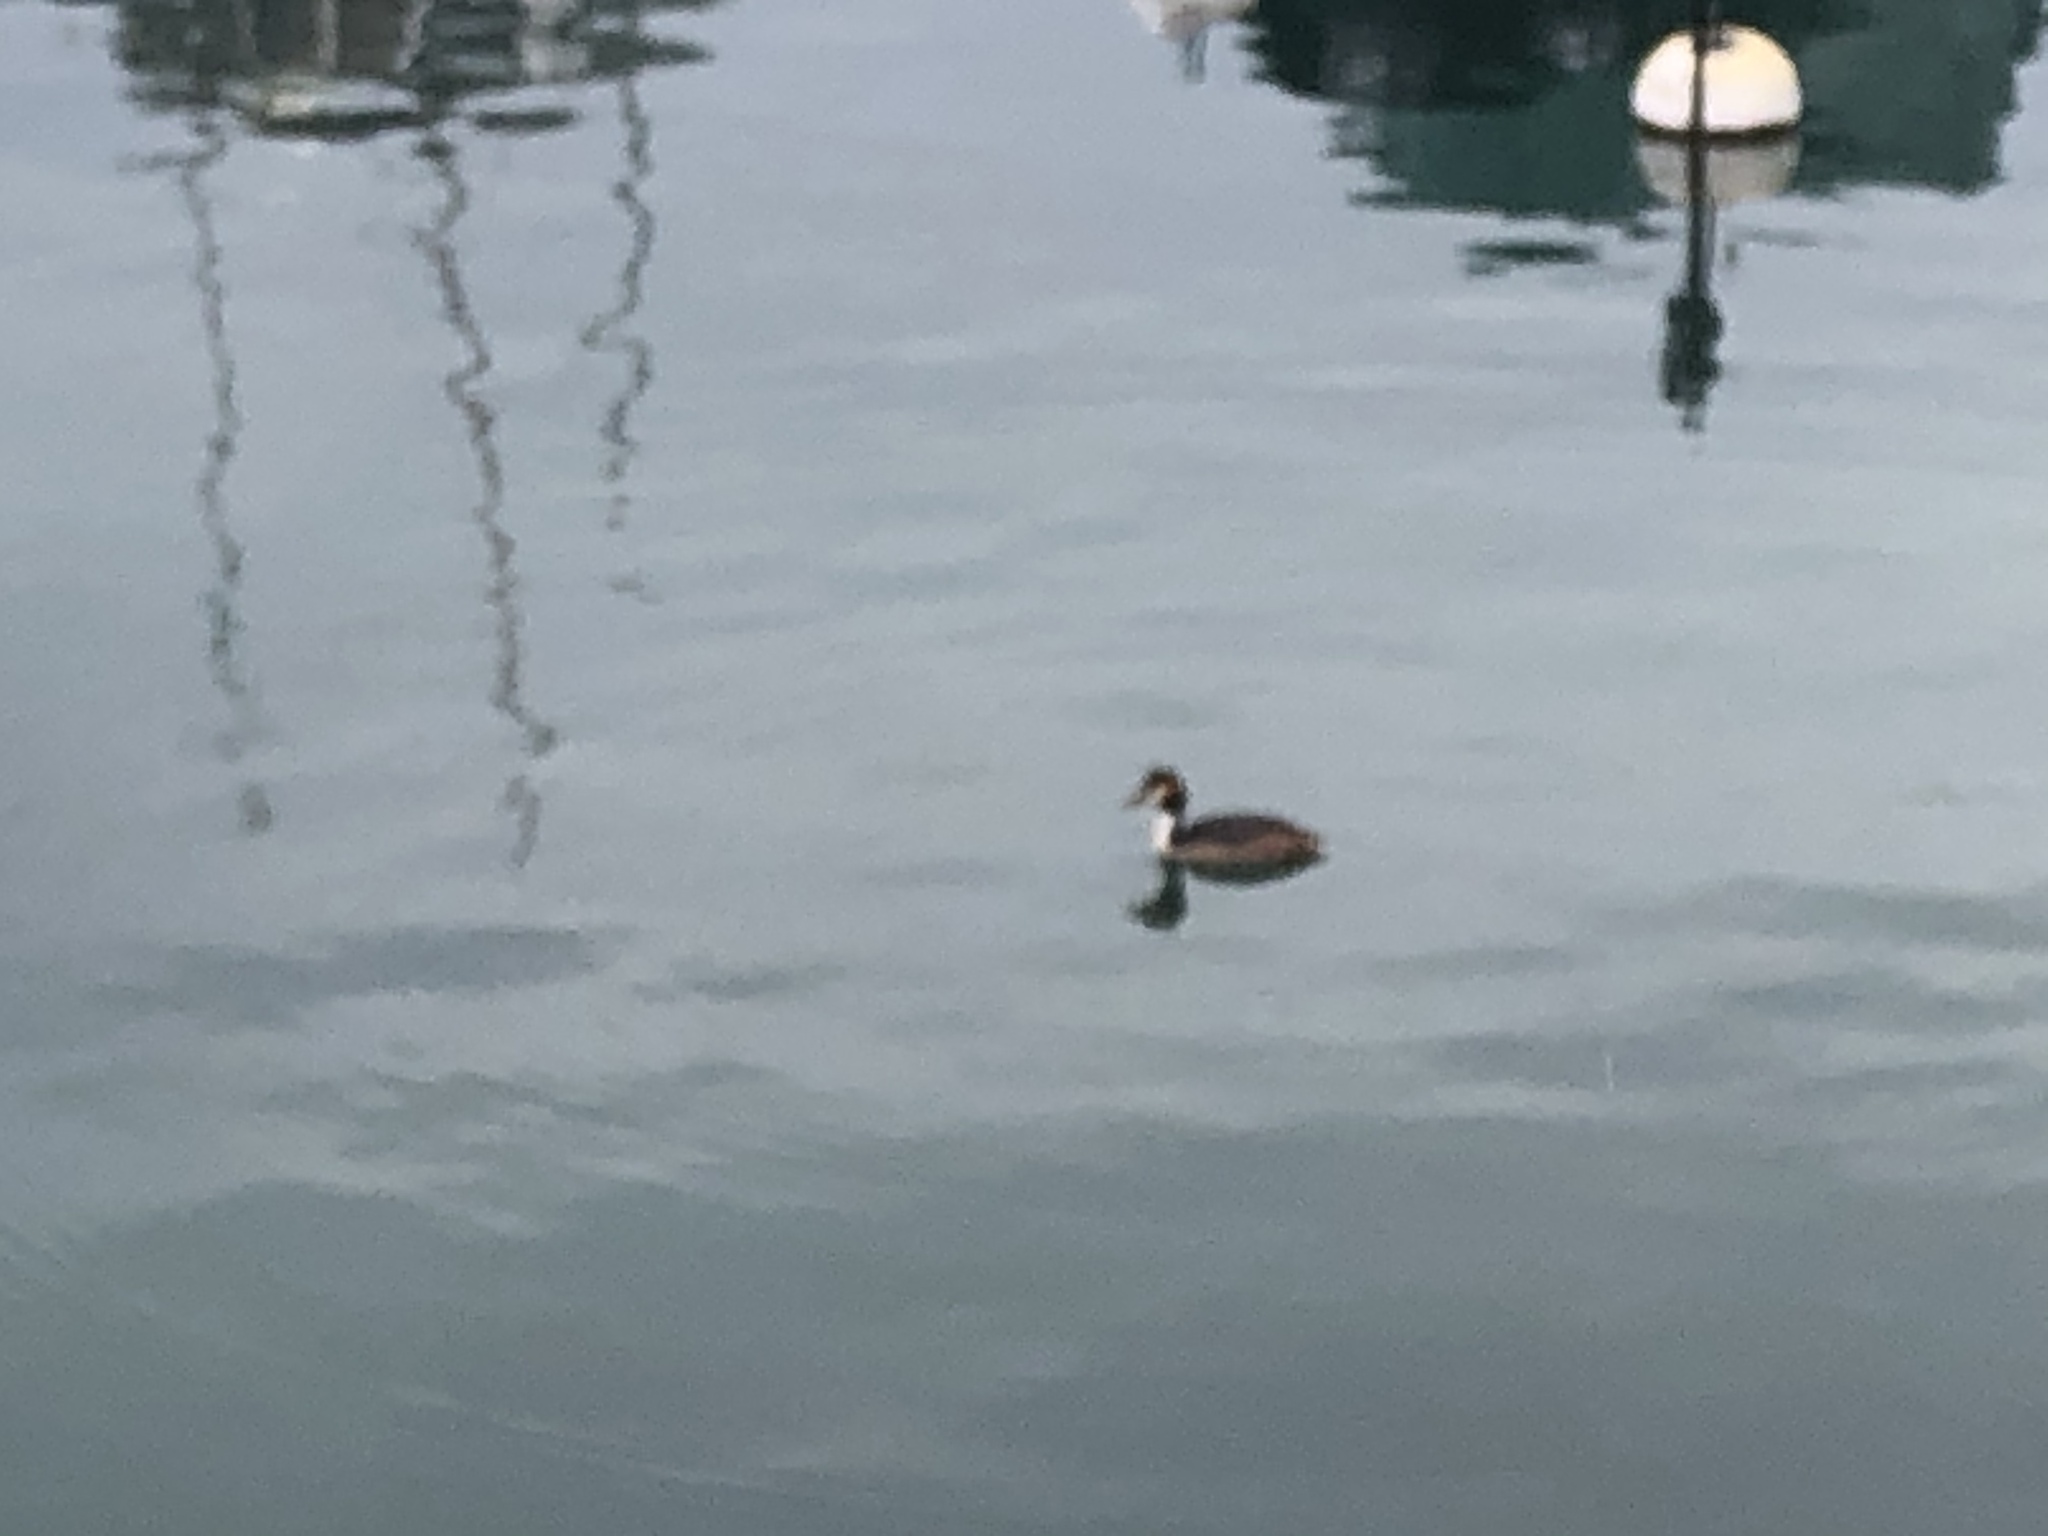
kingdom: Animalia
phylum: Chordata
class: Aves
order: Podicipediformes
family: Podicipedidae
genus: Podiceps
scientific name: Podiceps cristatus
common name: Great crested grebe
